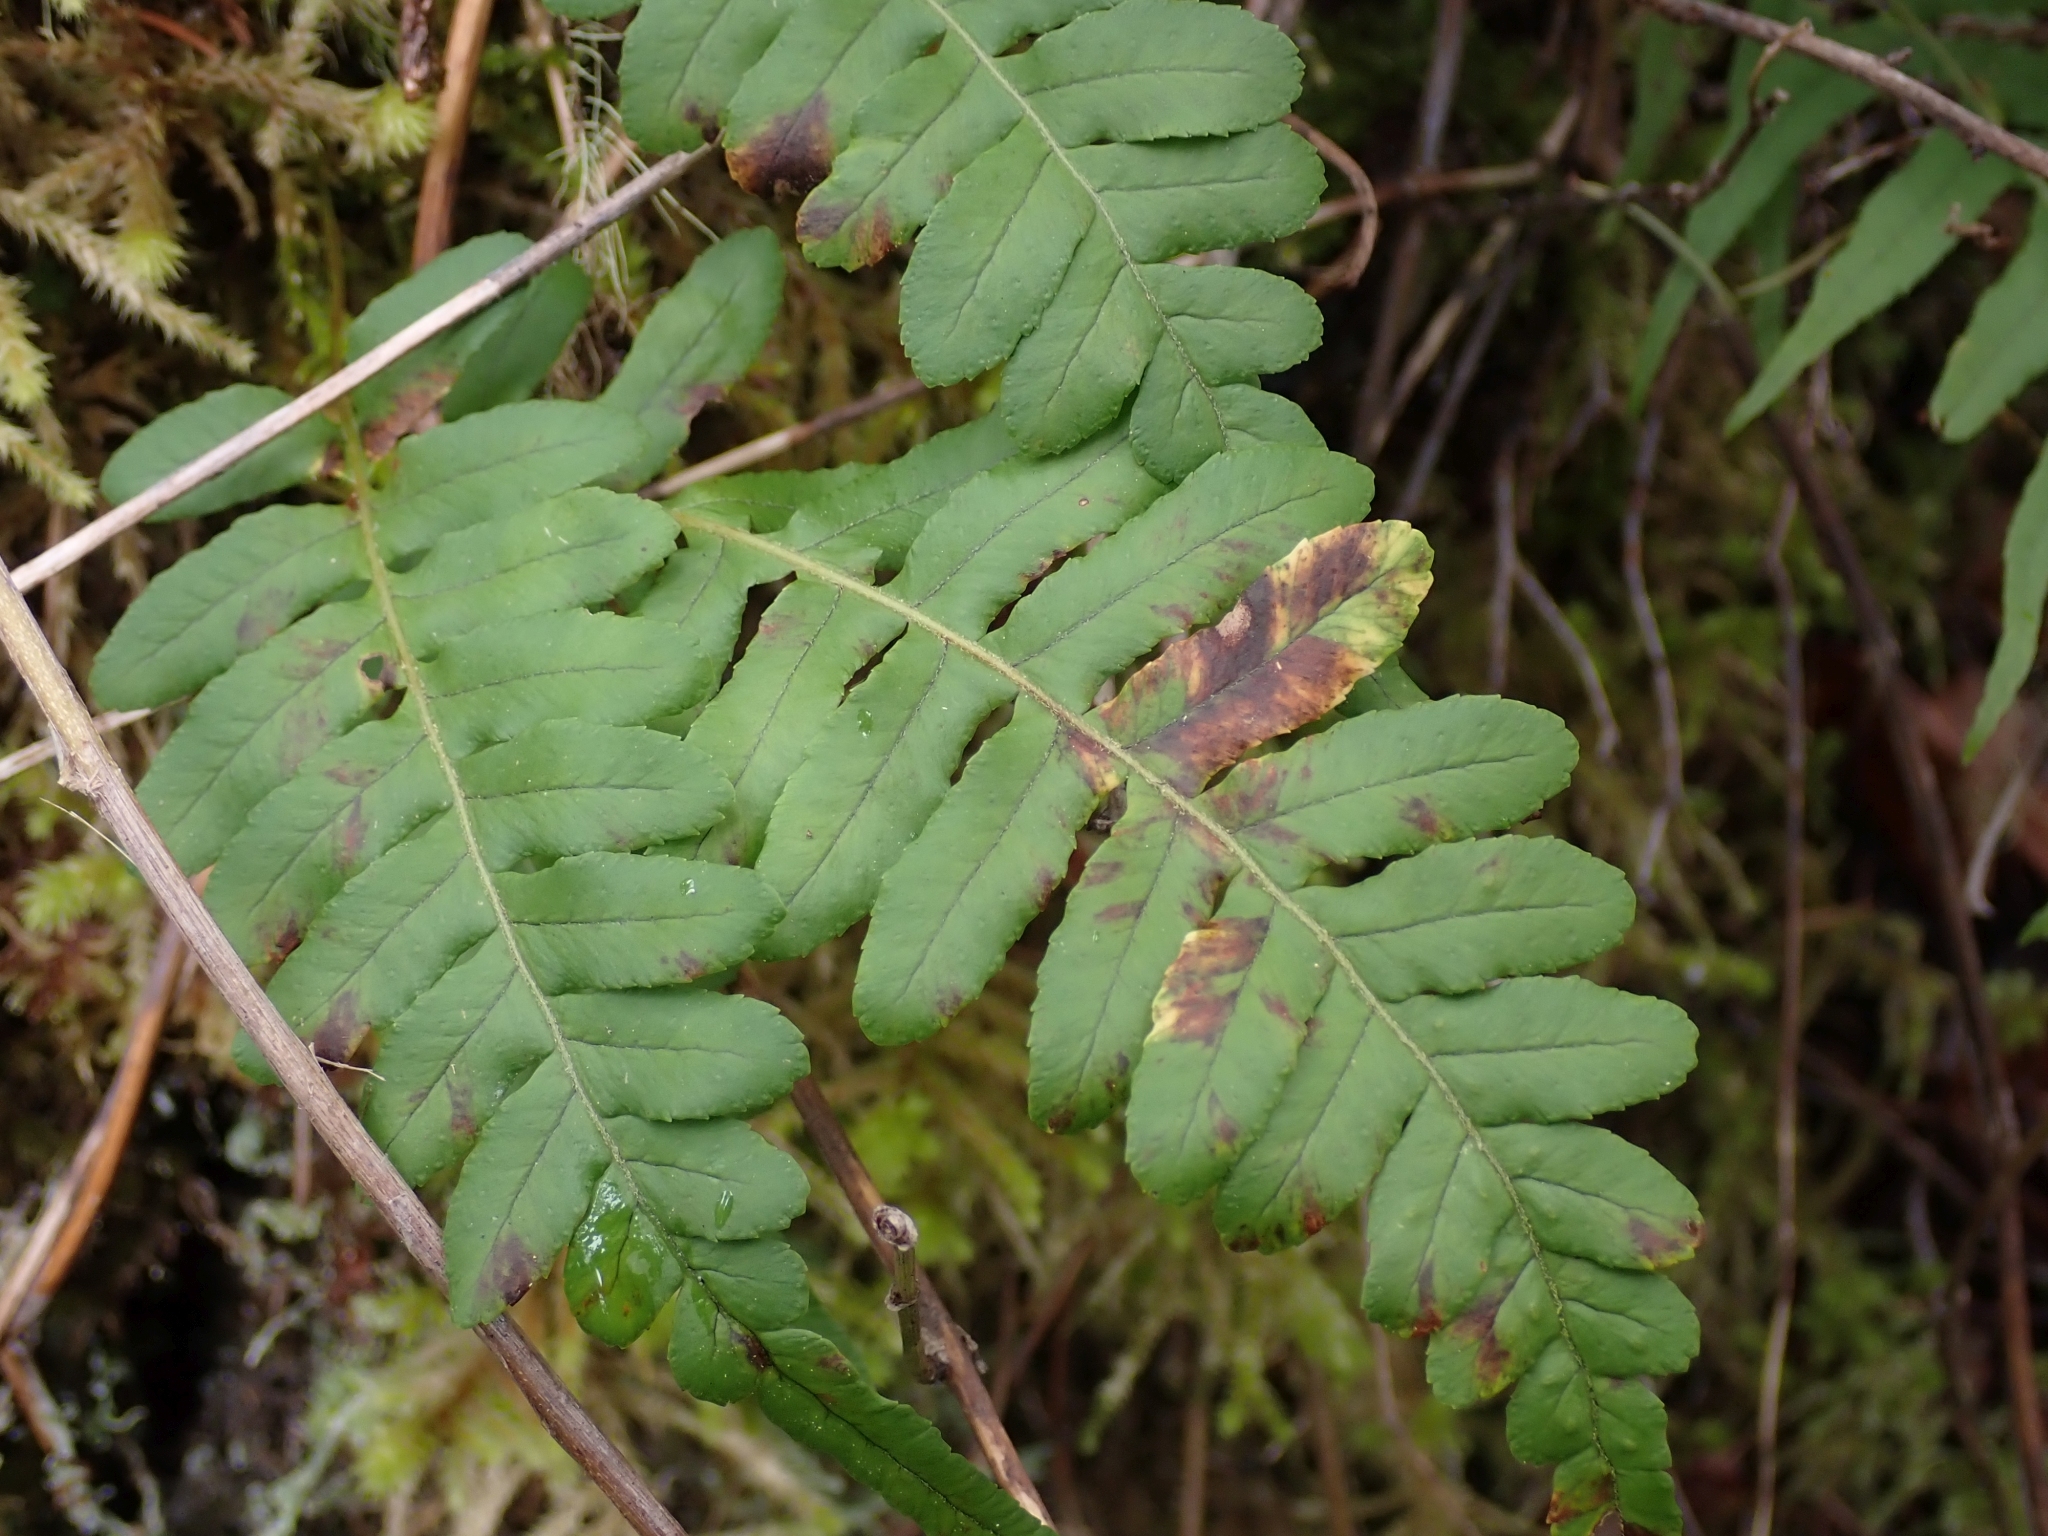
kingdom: Plantae
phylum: Tracheophyta
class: Polypodiopsida
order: Polypodiales
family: Polypodiaceae
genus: Polypodium
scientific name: Polypodium glycyrrhiza
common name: Licorice fern
